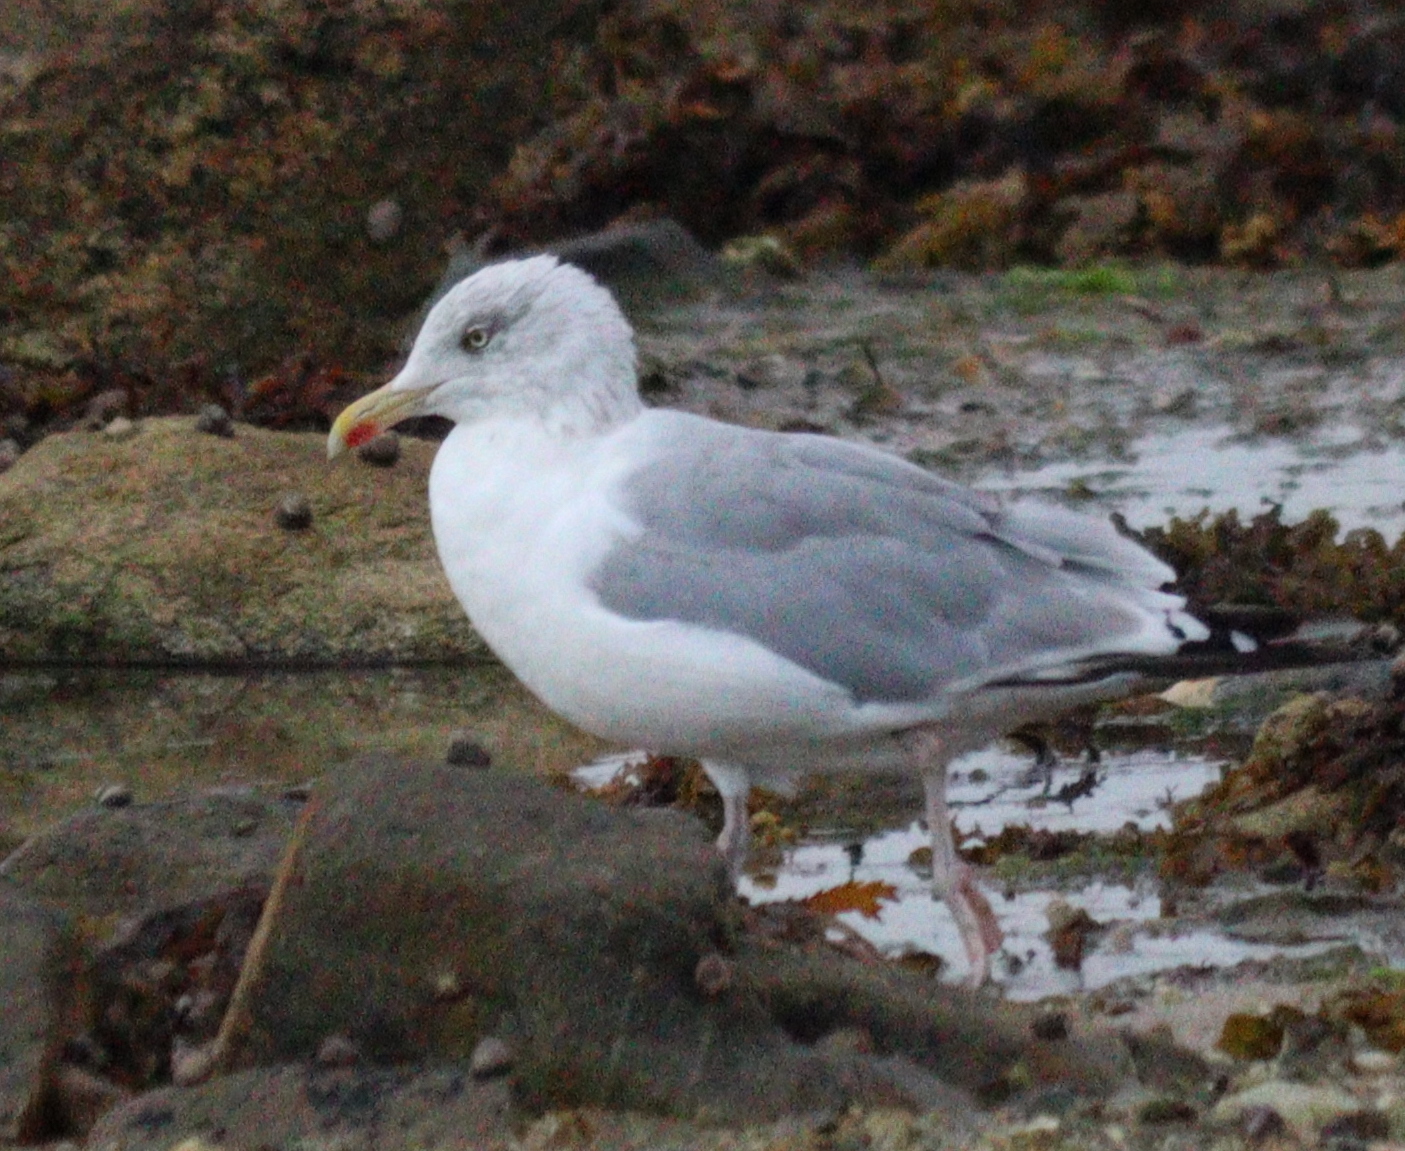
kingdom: Animalia
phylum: Chordata
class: Aves
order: Charadriiformes
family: Laridae
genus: Larus
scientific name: Larus argentatus
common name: Herring gull
